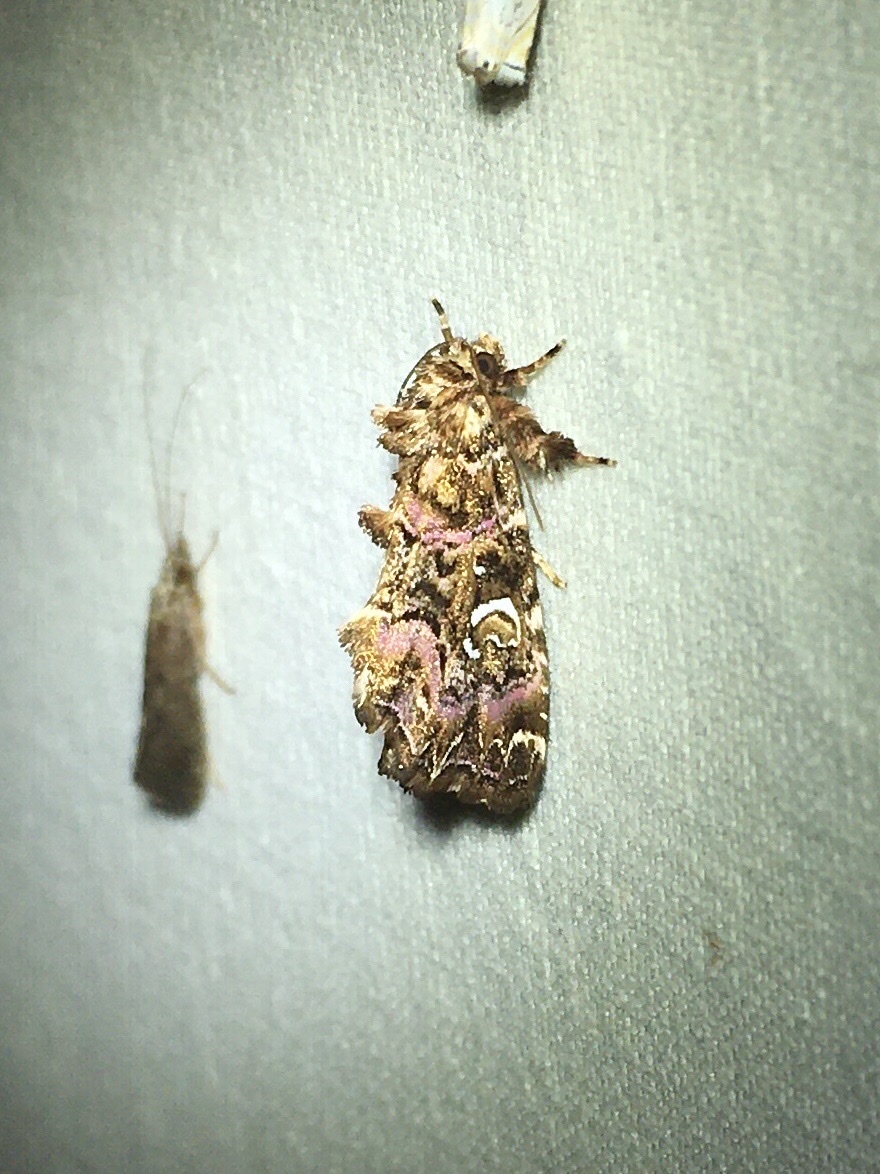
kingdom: Animalia
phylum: Arthropoda
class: Insecta
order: Lepidoptera
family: Noctuidae
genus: Callopistria
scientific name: Callopistria mollissima
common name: Pink-shaded fern moth
